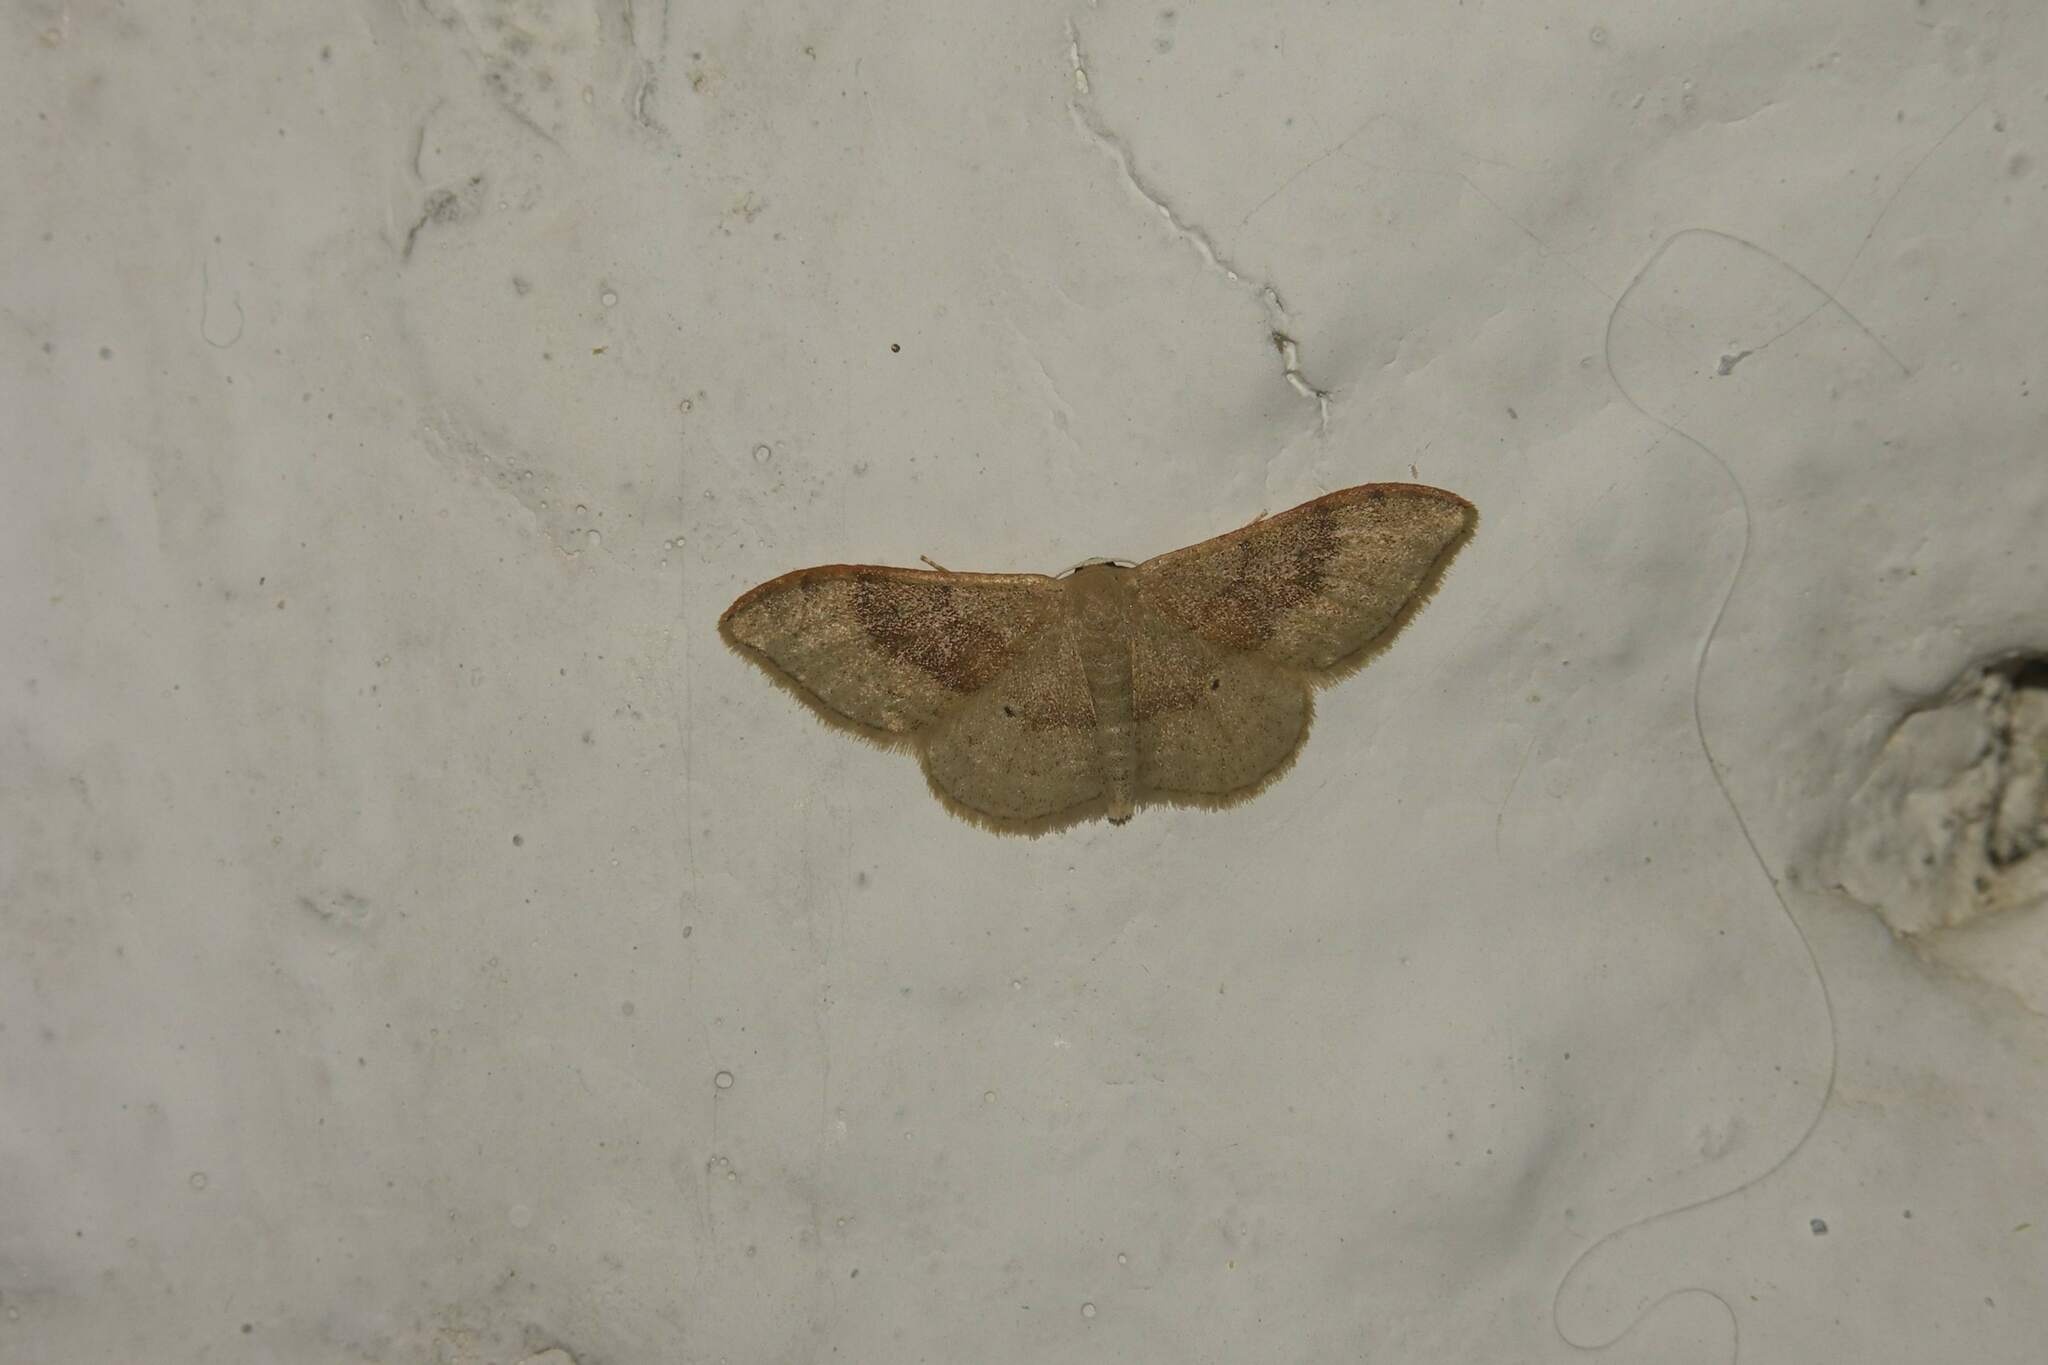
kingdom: Animalia
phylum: Arthropoda
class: Insecta
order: Lepidoptera
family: Geometridae
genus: Idaea
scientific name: Idaea degeneraria
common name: Portland ribbon wave
